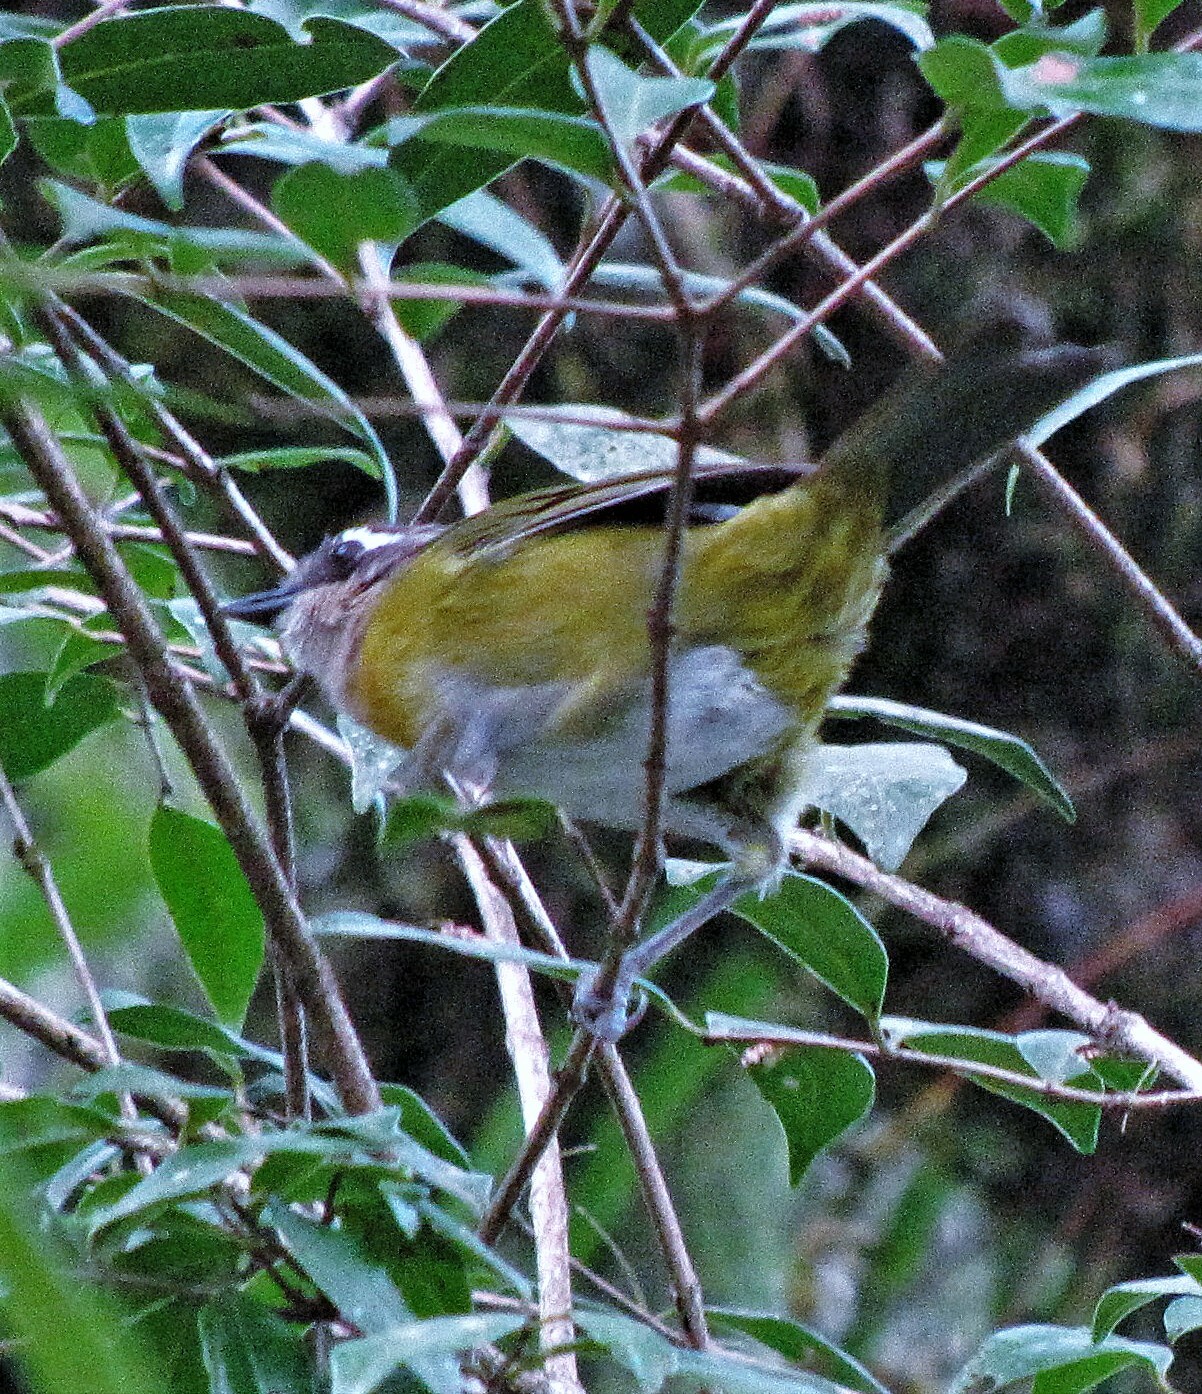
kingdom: Animalia
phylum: Chordata
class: Aves
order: Passeriformes
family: Passerellidae
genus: Chlorospingus
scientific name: Chlorospingus flavopectus
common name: Common chlorospingus
